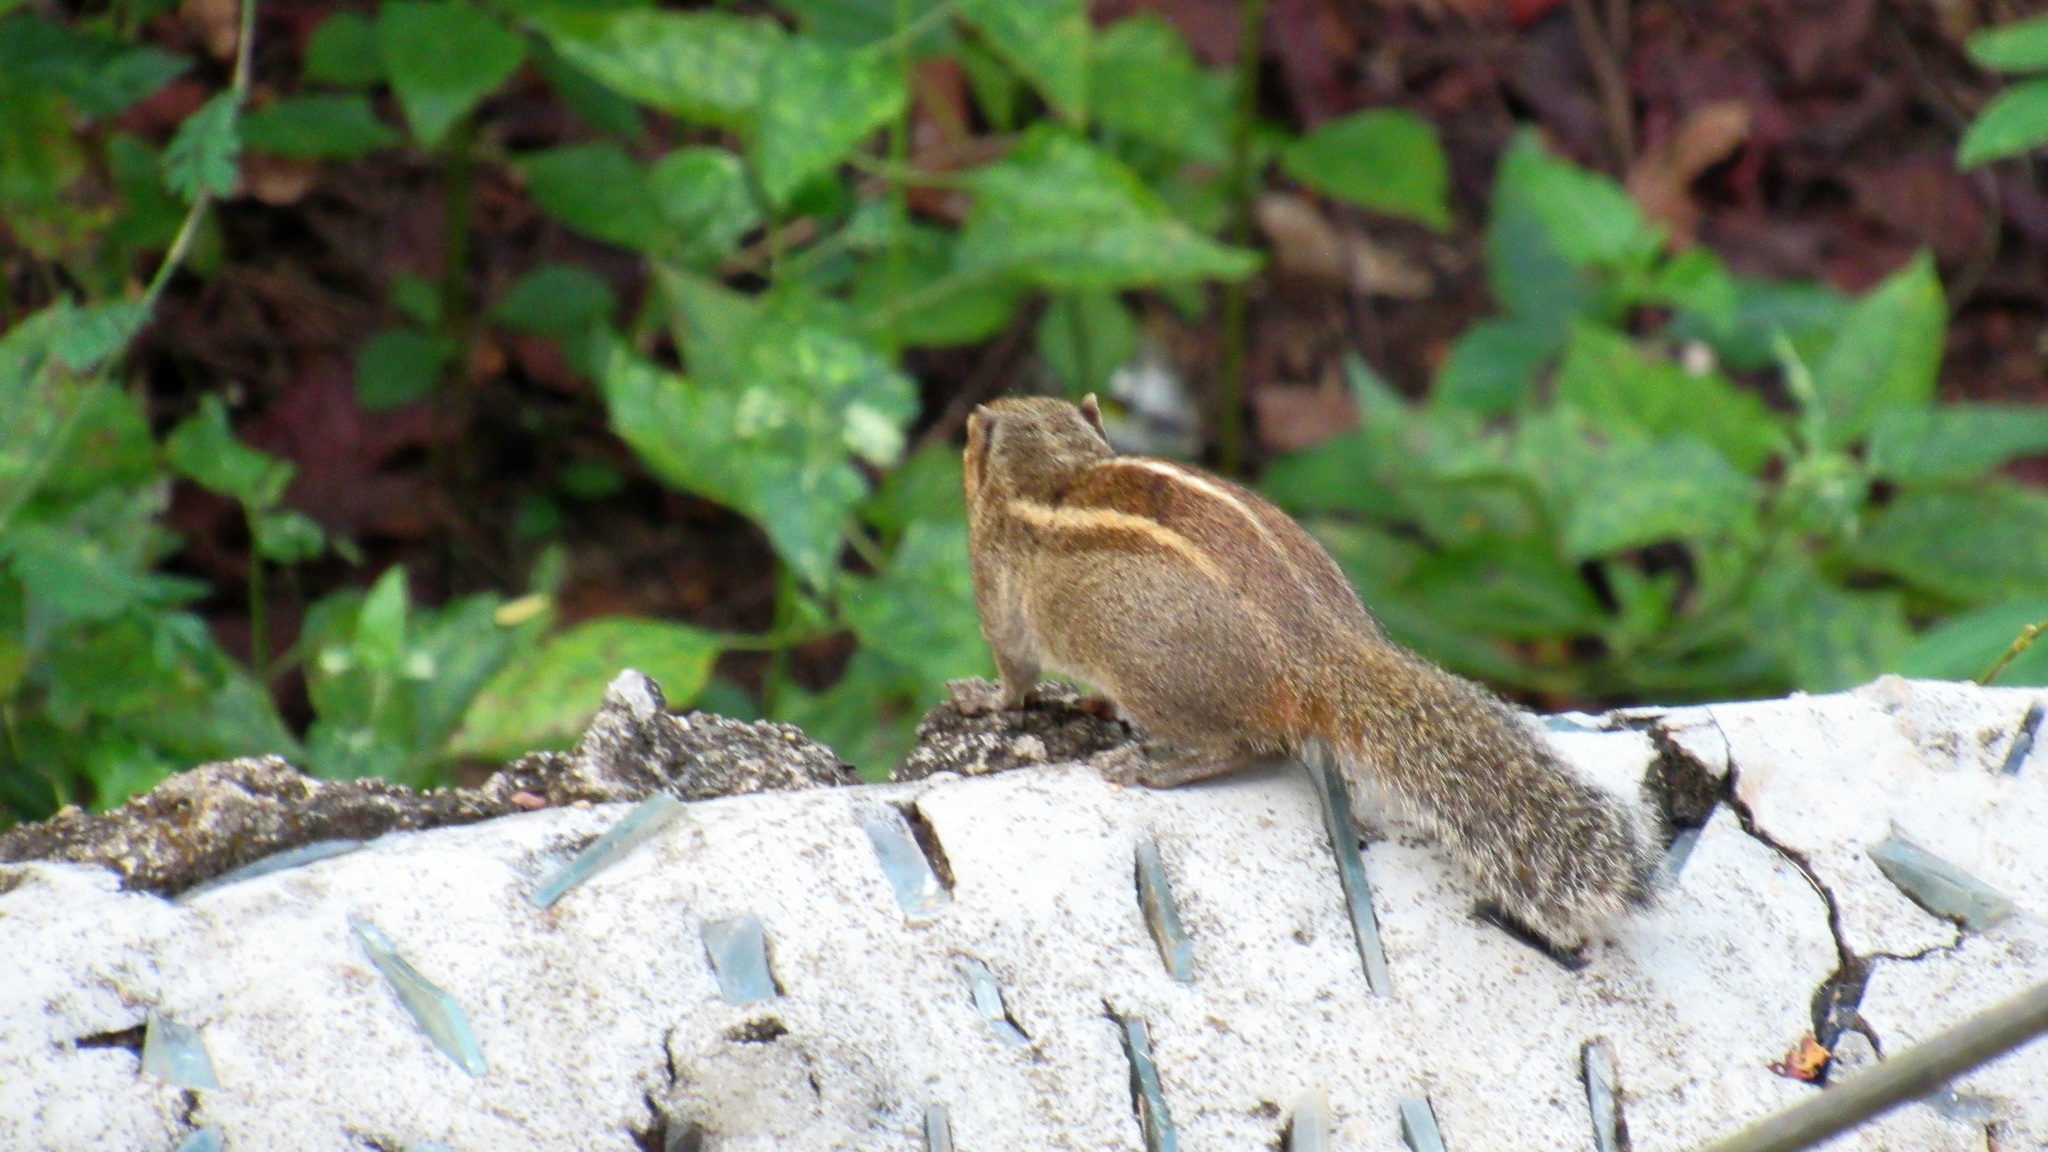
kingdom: Animalia
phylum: Chordata
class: Mammalia
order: Rodentia
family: Sciuridae
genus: Funambulus
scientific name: Funambulus palmarum
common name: Indian palm squirrel
